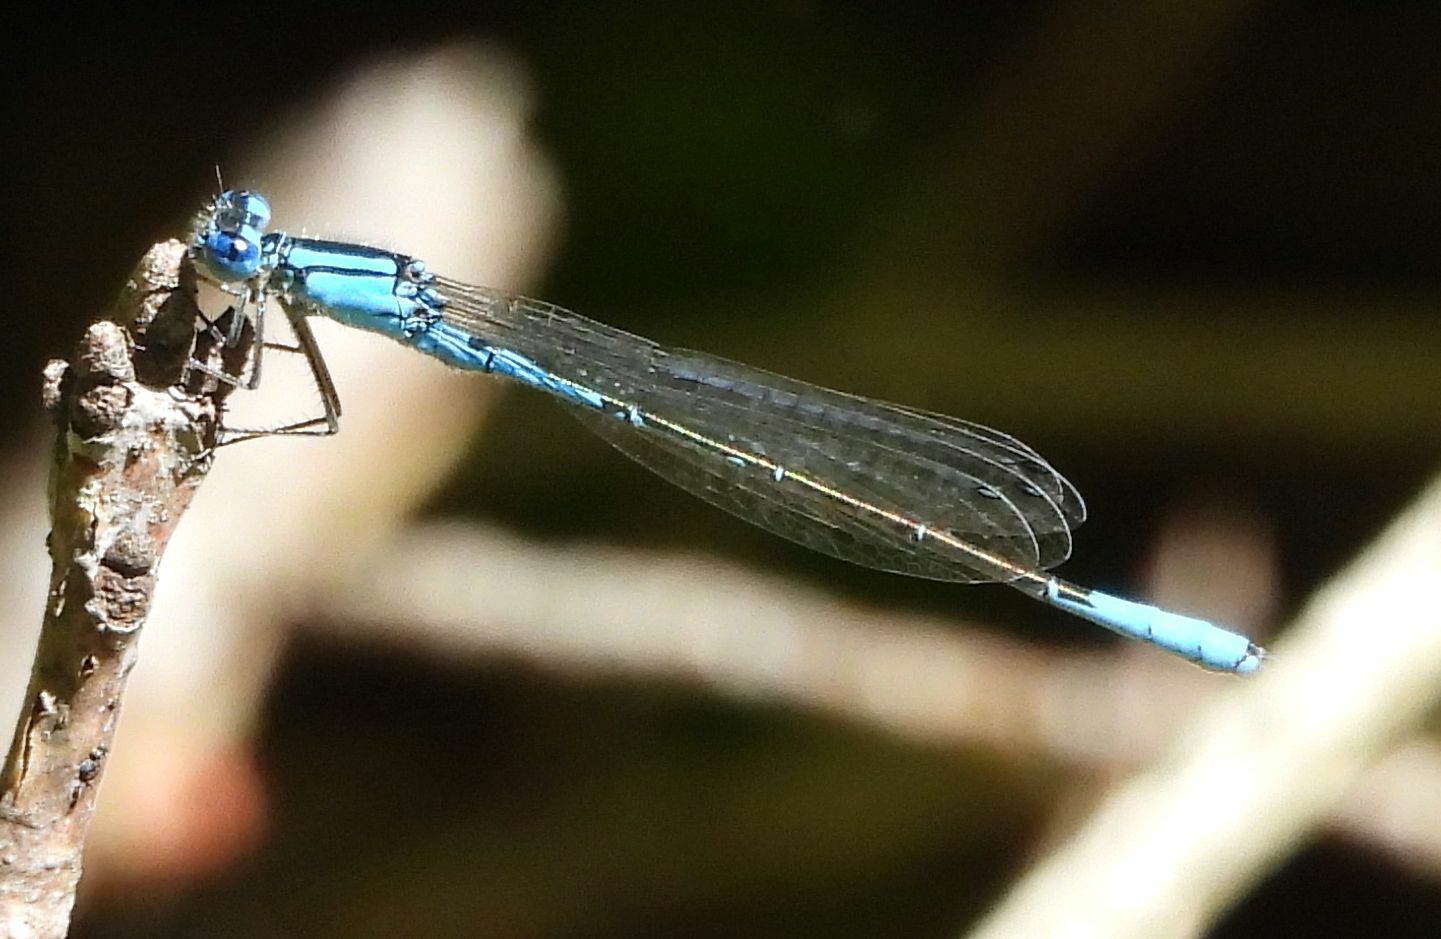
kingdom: Animalia
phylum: Arthropoda
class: Insecta
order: Odonata
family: Coenagrionidae
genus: Enallagma
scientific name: Enallagma aspersum
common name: Azure bluet
